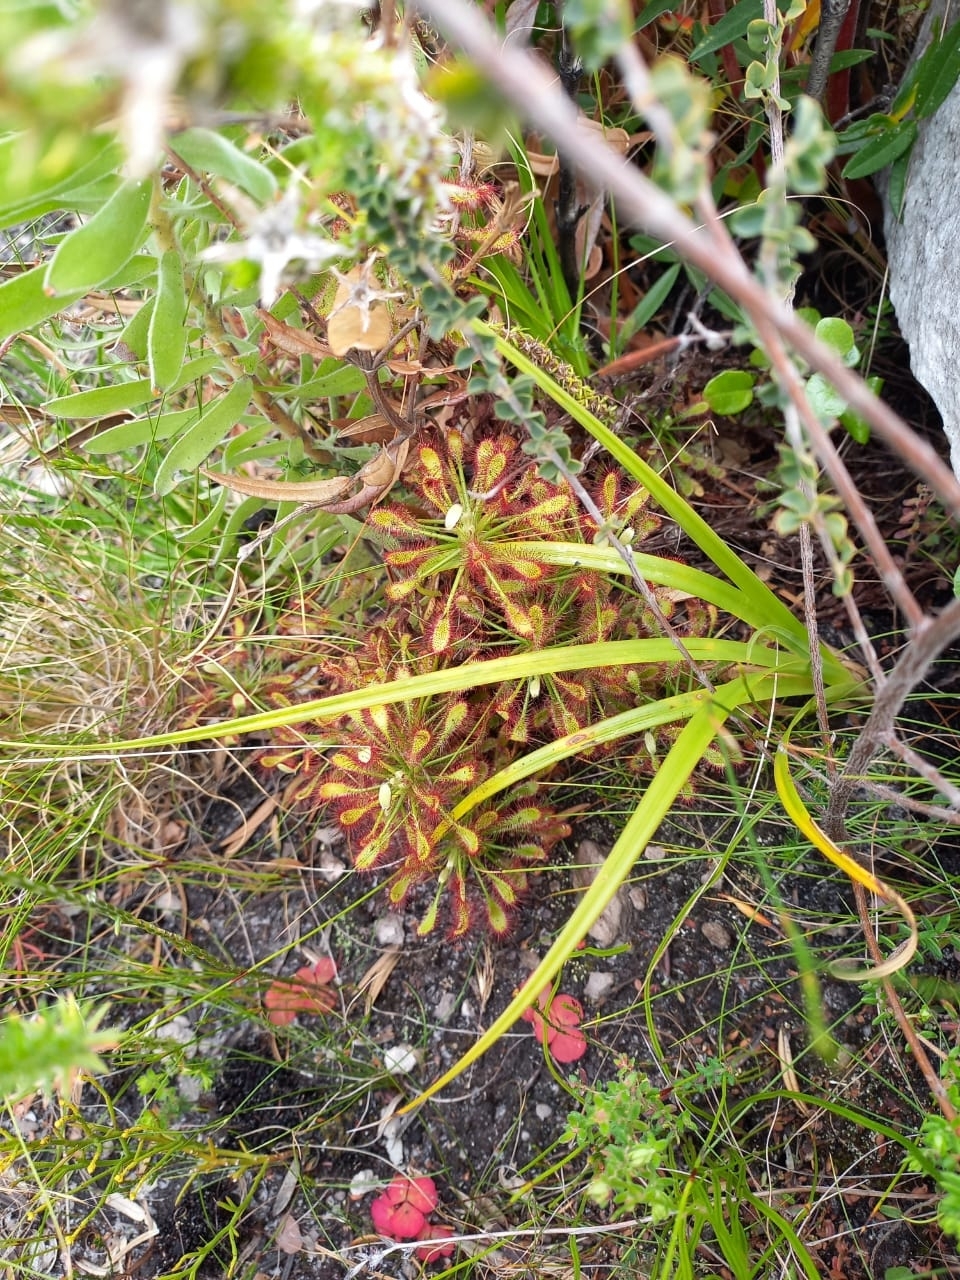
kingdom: Plantae
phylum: Tracheophyta
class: Magnoliopsida
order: Caryophyllales
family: Droseraceae
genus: Drosera
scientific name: Drosera glabripes
